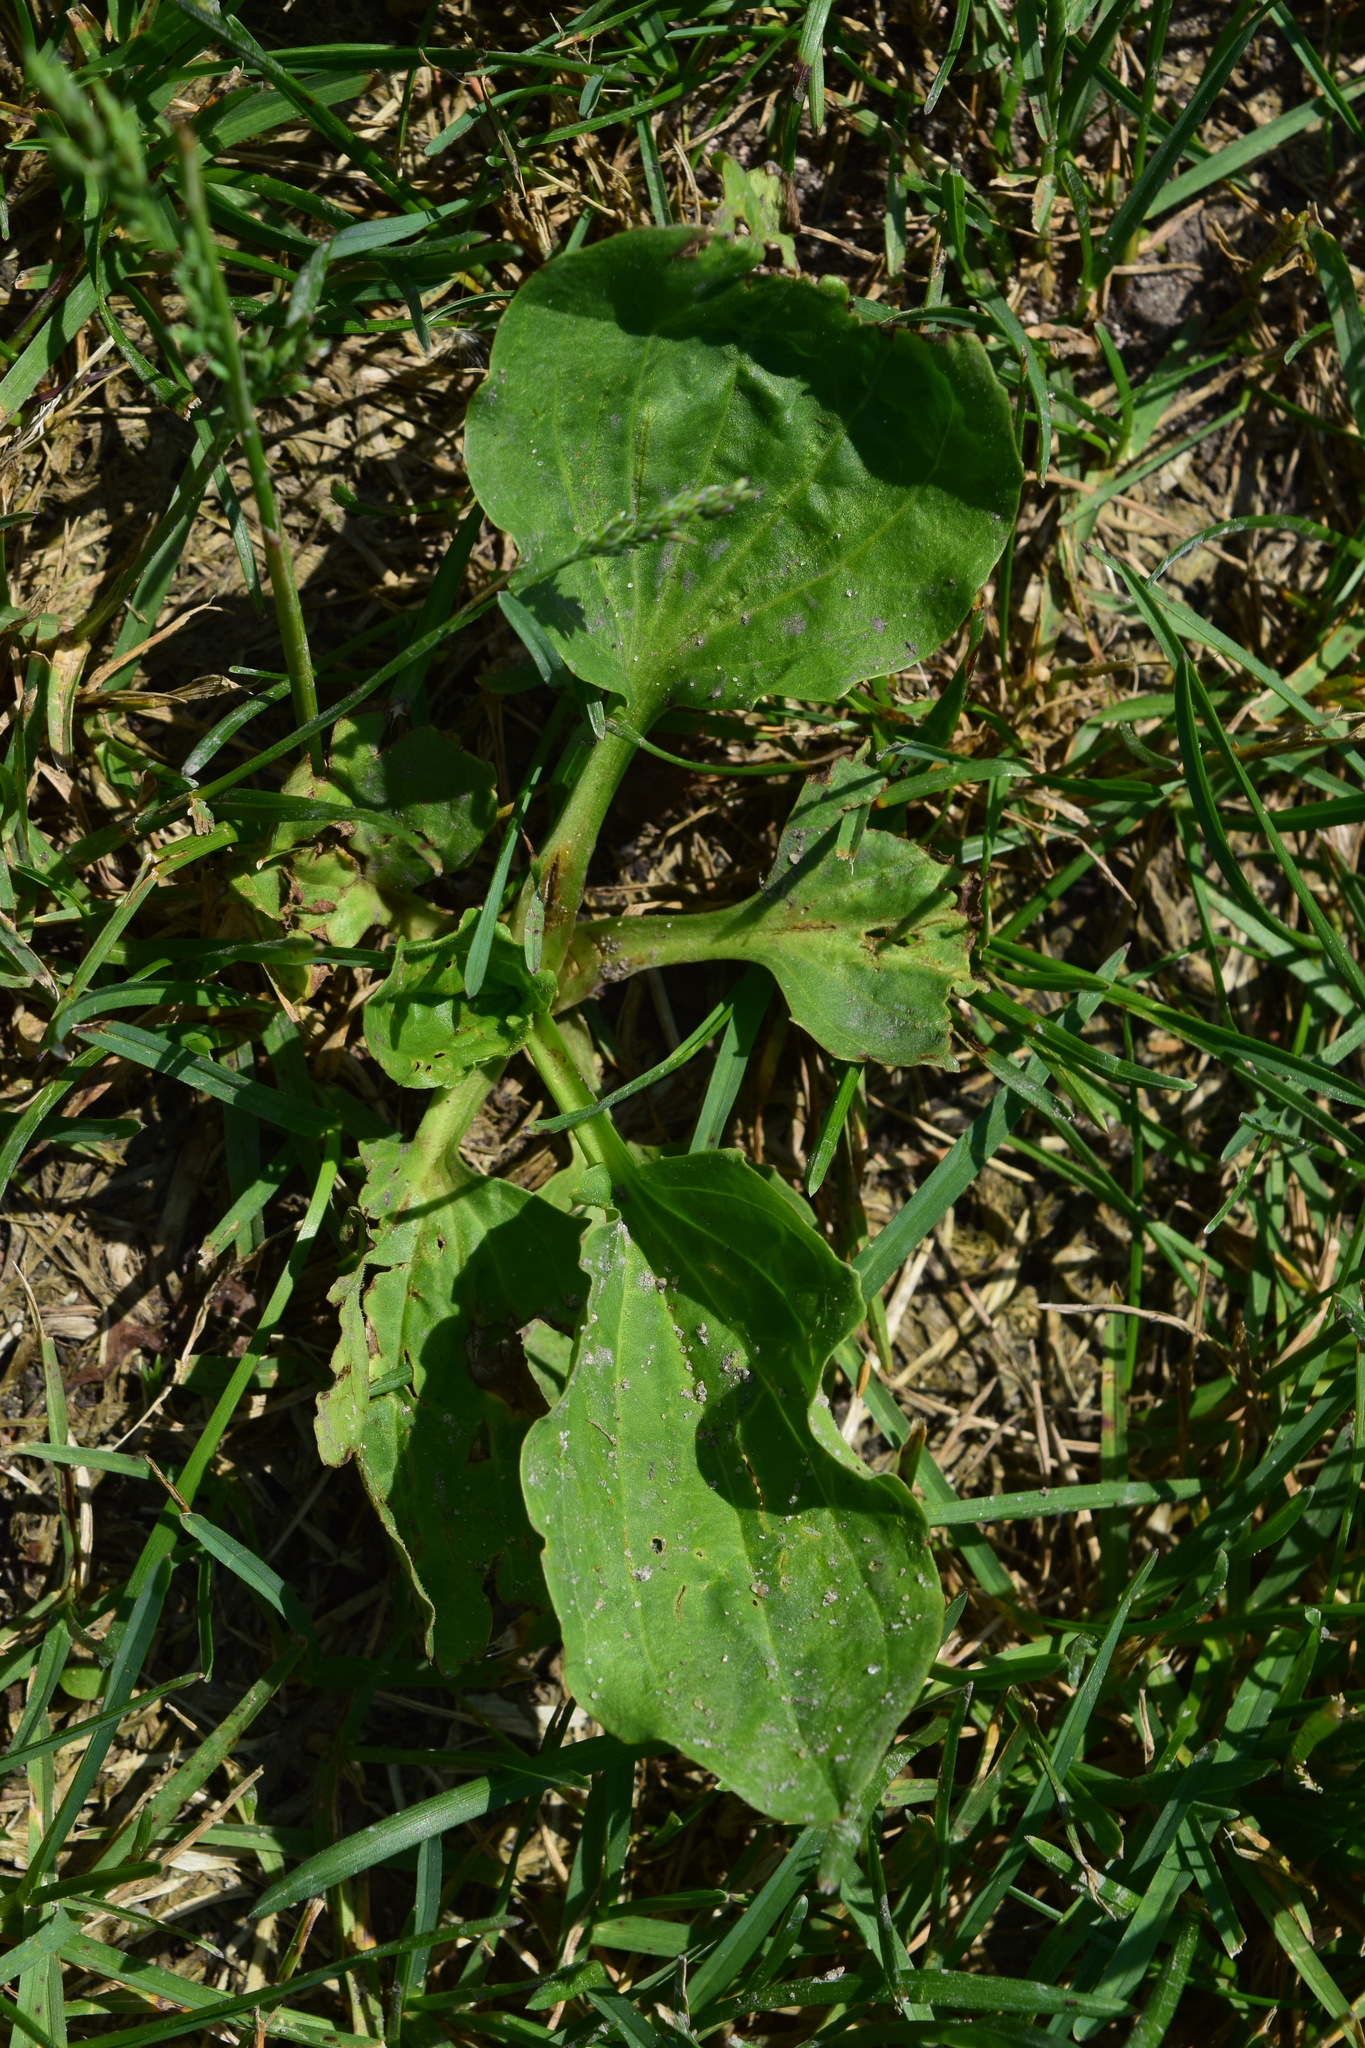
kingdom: Plantae
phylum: Tracheophyta
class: Magnoliopsida
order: Lamiales
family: Plantaginaceae
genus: Plantago
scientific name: Plantago major
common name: Common plantain
